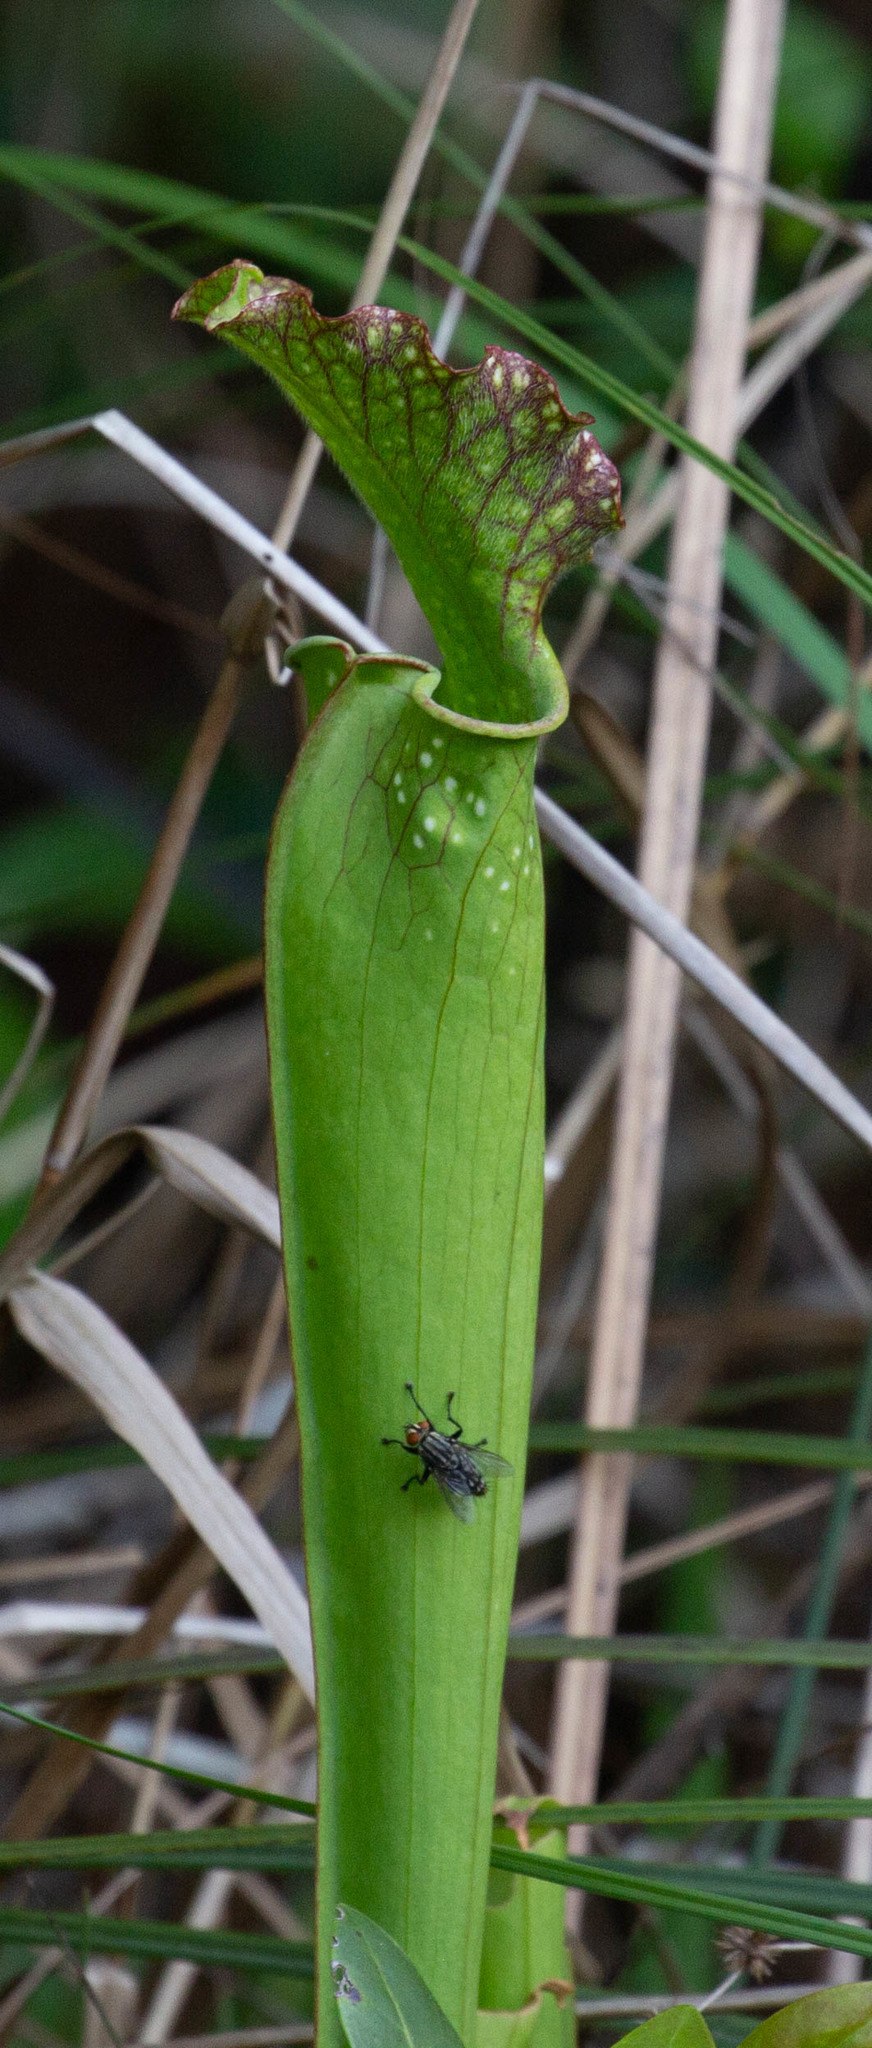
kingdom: Plantae
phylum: Tracheophyta
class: Magnoliopsida
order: Ericales
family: Sarraceniaceae
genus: Sarracenia
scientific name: Sarracenia moorei
